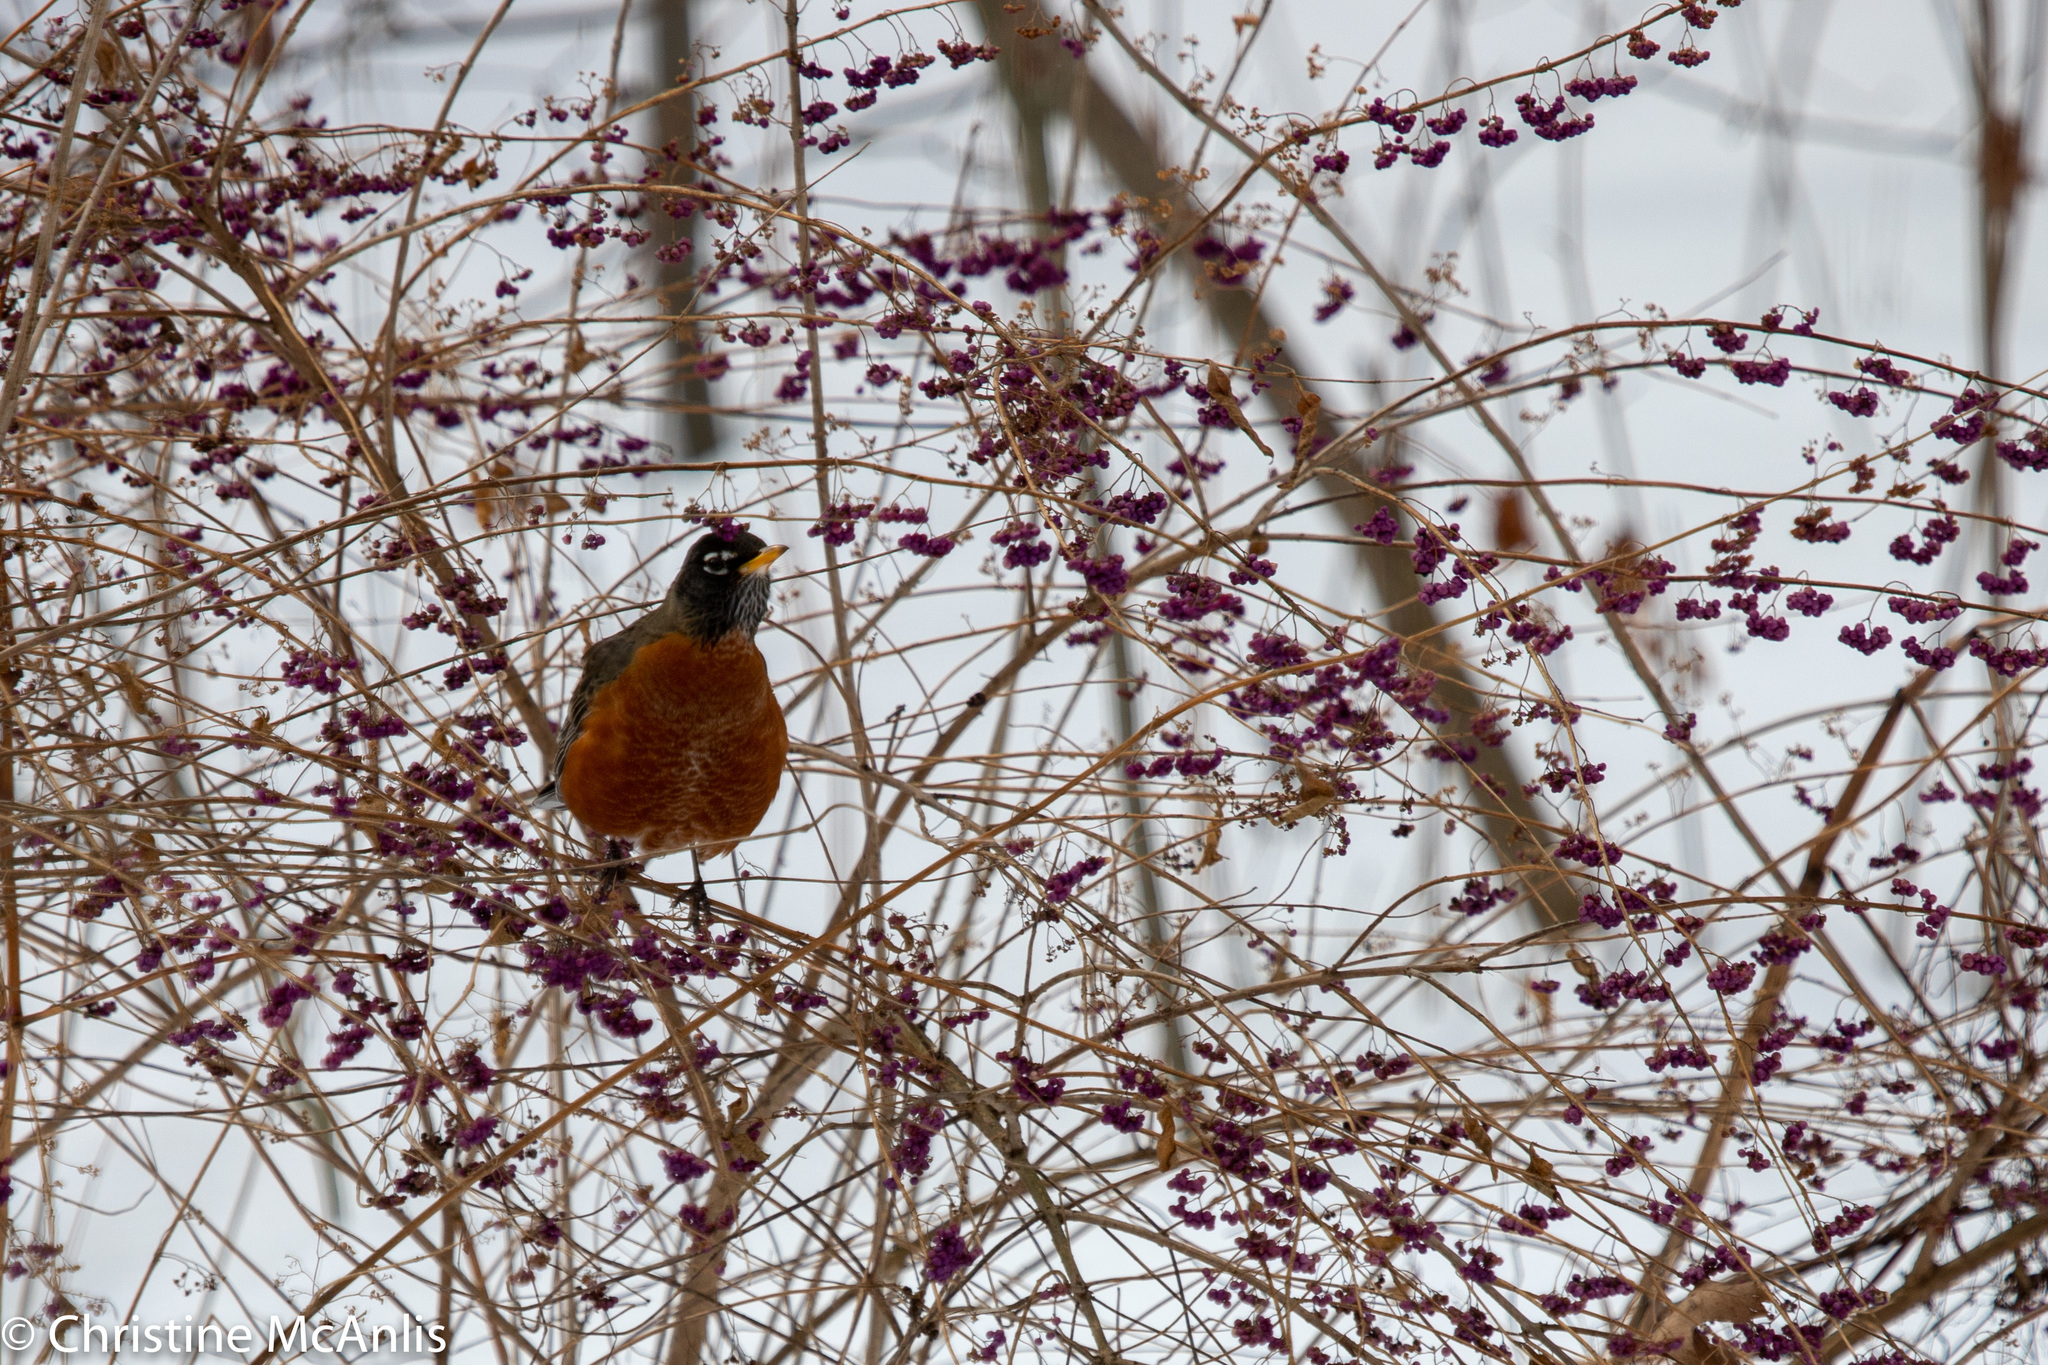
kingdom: Animalia
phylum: Chordata
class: Aves
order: Passeriformes
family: Turdidae
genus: Turdus
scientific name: Turdus migratorius
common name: American robin
